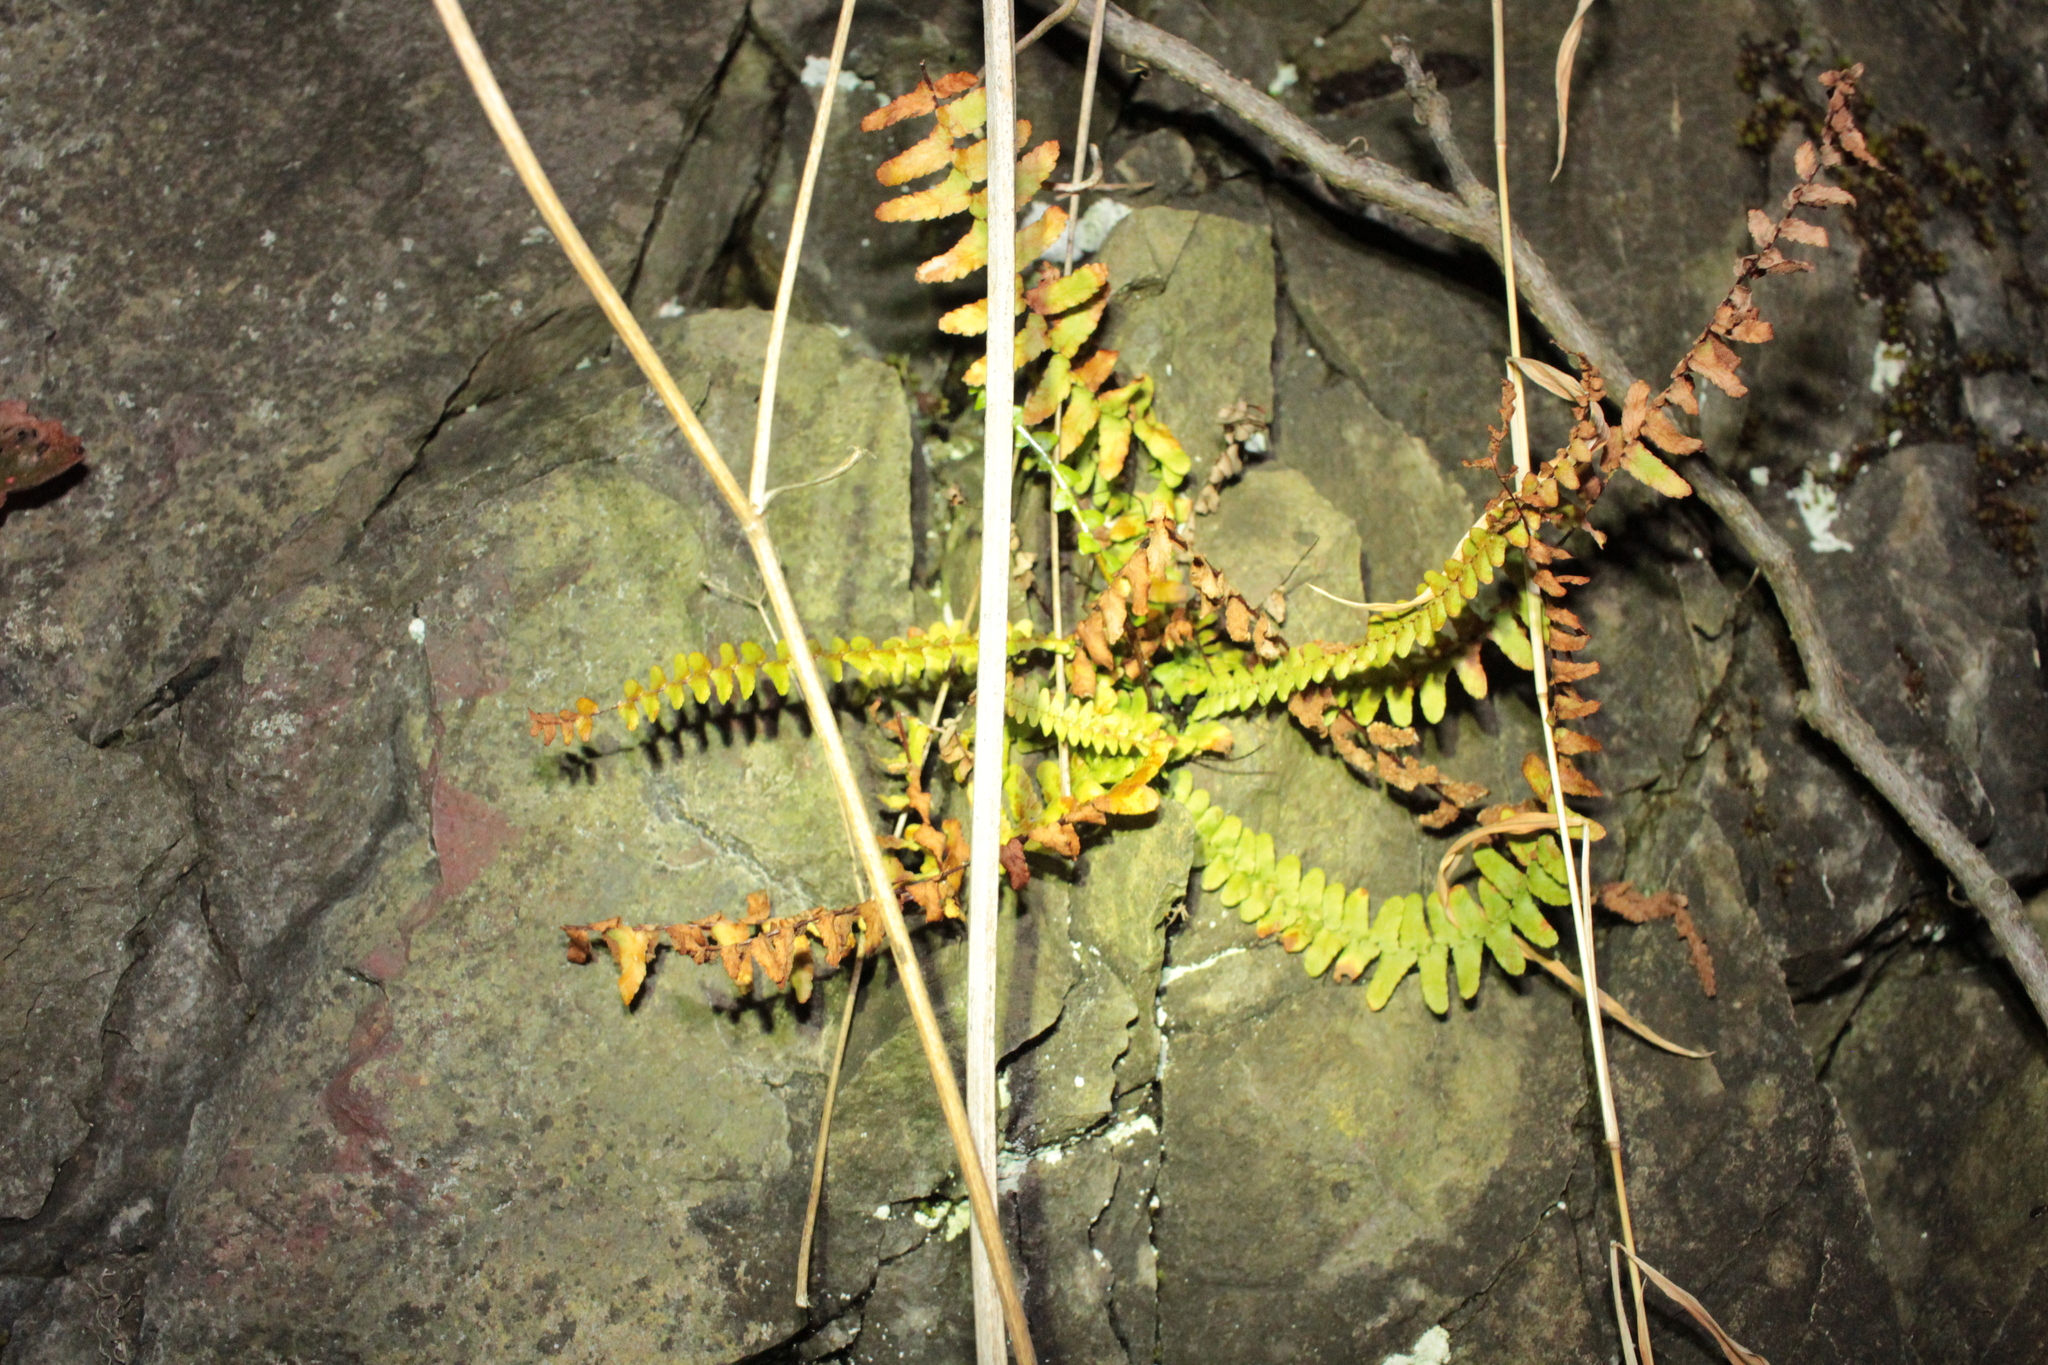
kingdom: Plantae
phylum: Tracheophyta
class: Polypodiopsida
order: Polypodiales
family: Aspleniaceae
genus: Asplenium
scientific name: Asplenium platyneuron
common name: Ebony spleenwort
